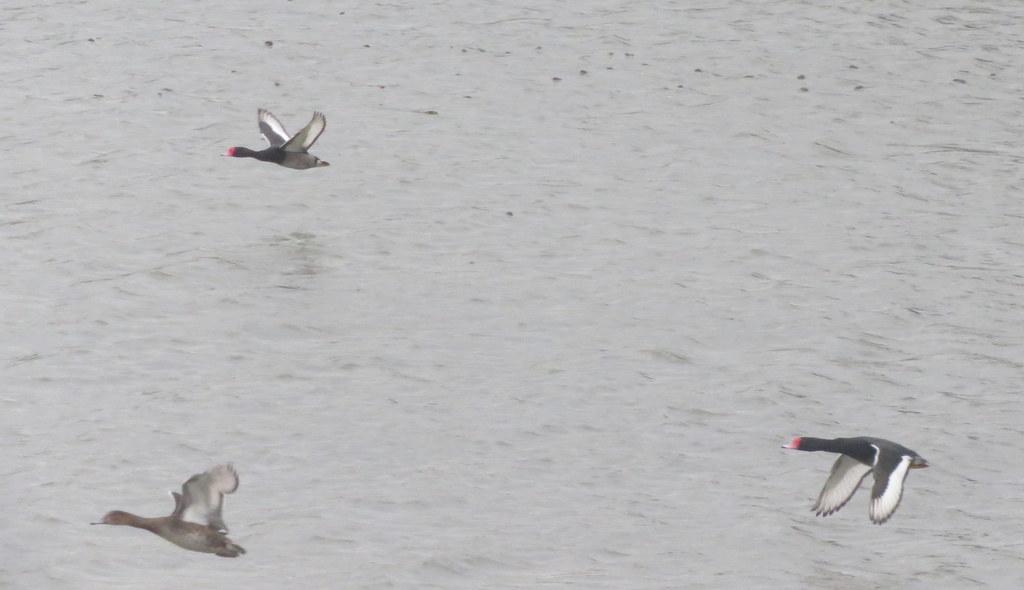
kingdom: Animalia
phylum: Chordata
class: Aves
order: Anseriformes
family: Anatidae
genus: Netta
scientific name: Netta peposaca
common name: Rosy-billed pochard
